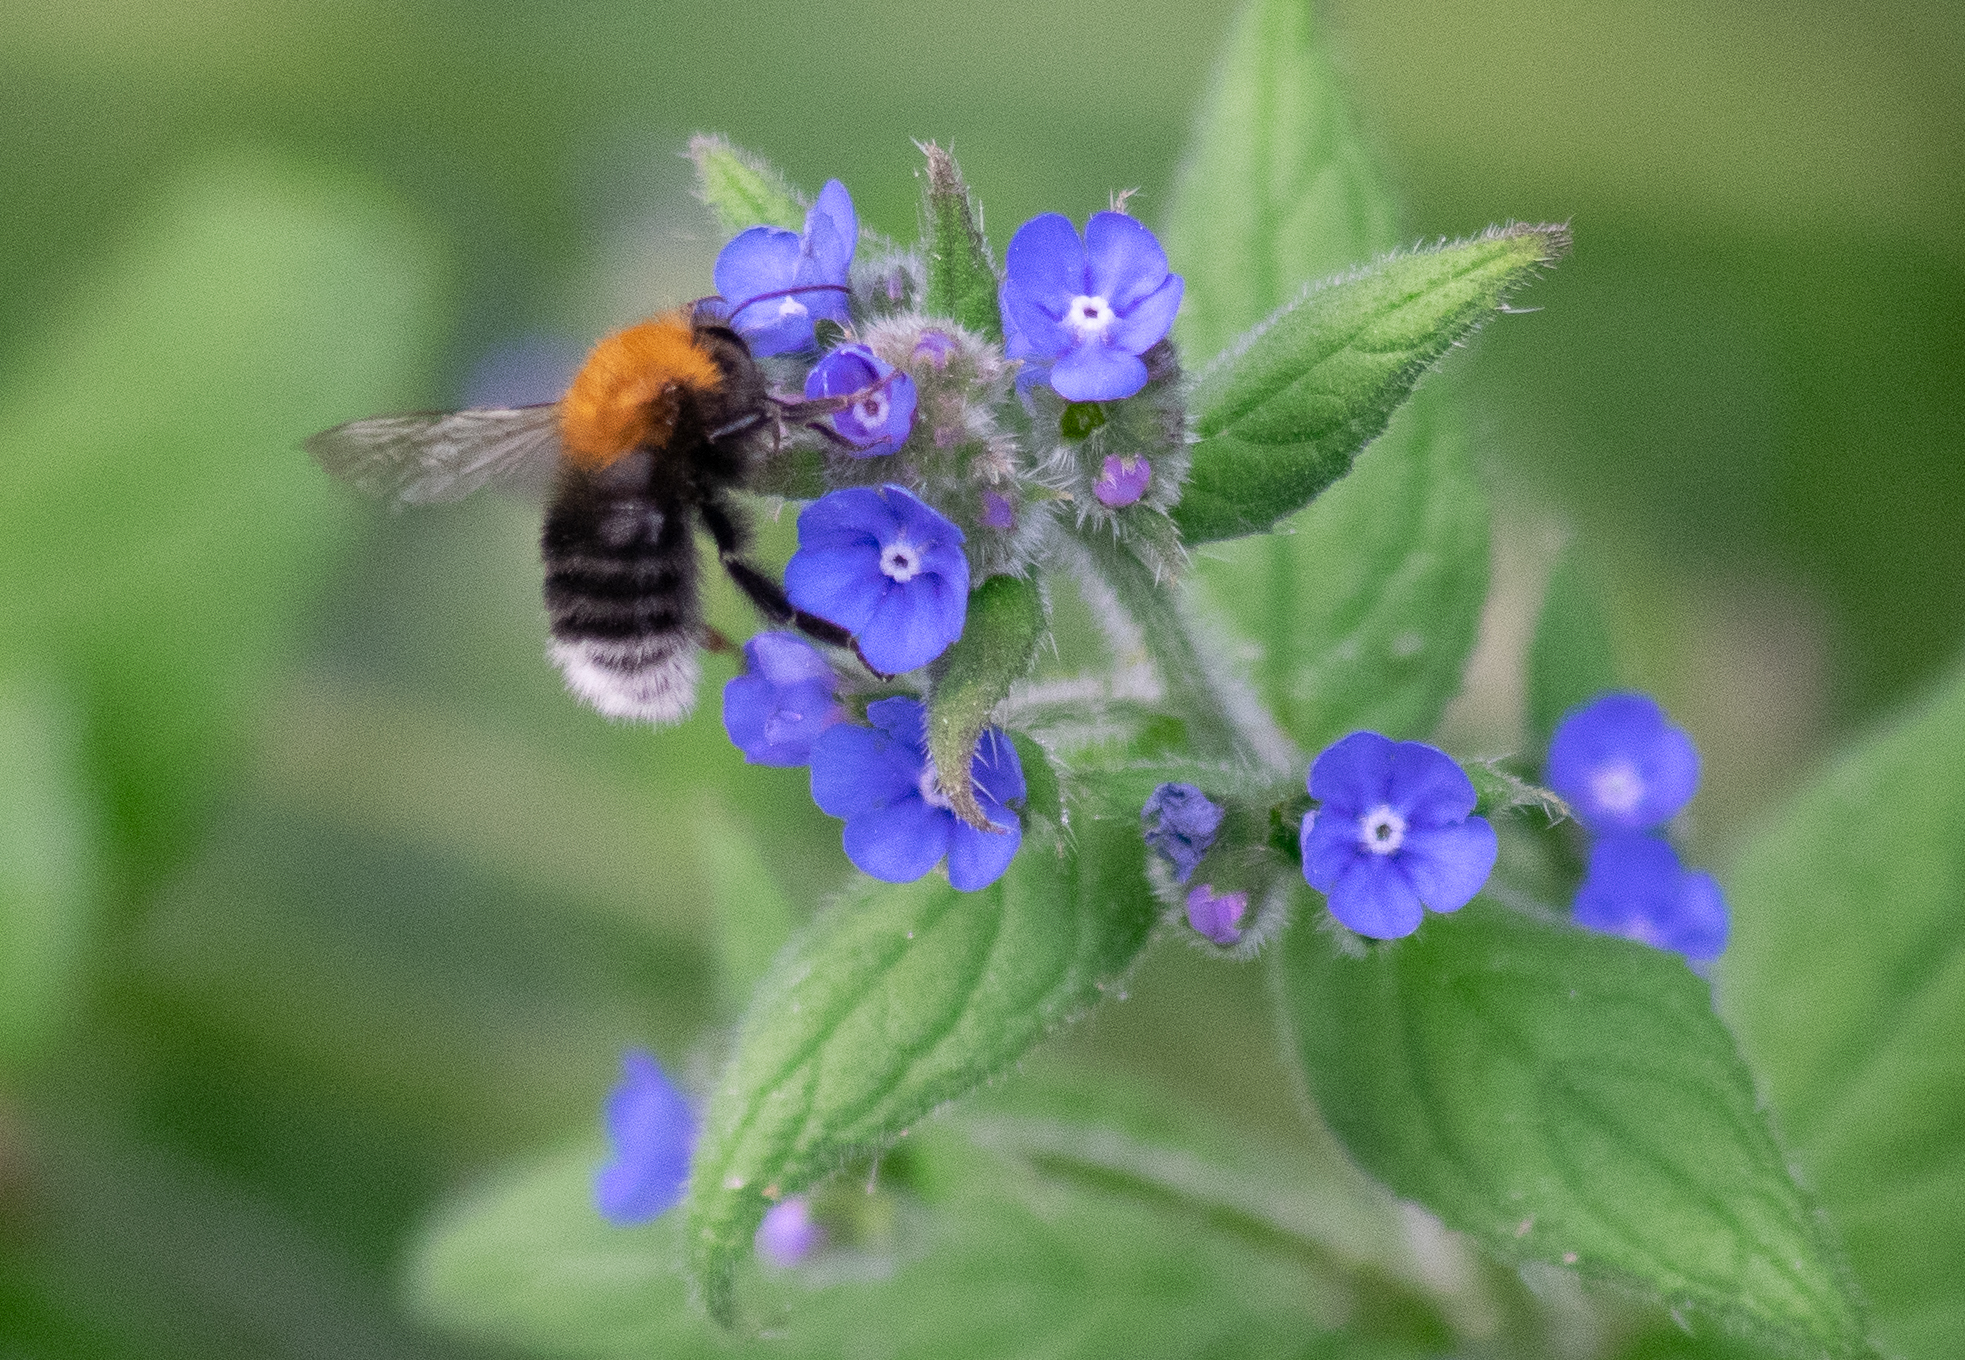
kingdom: Animalia
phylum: Arthropoda
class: Insecta
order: Hymenoptera
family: Apidae
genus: Bombus
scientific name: Bombus hypnorum
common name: New garden bumblebee
